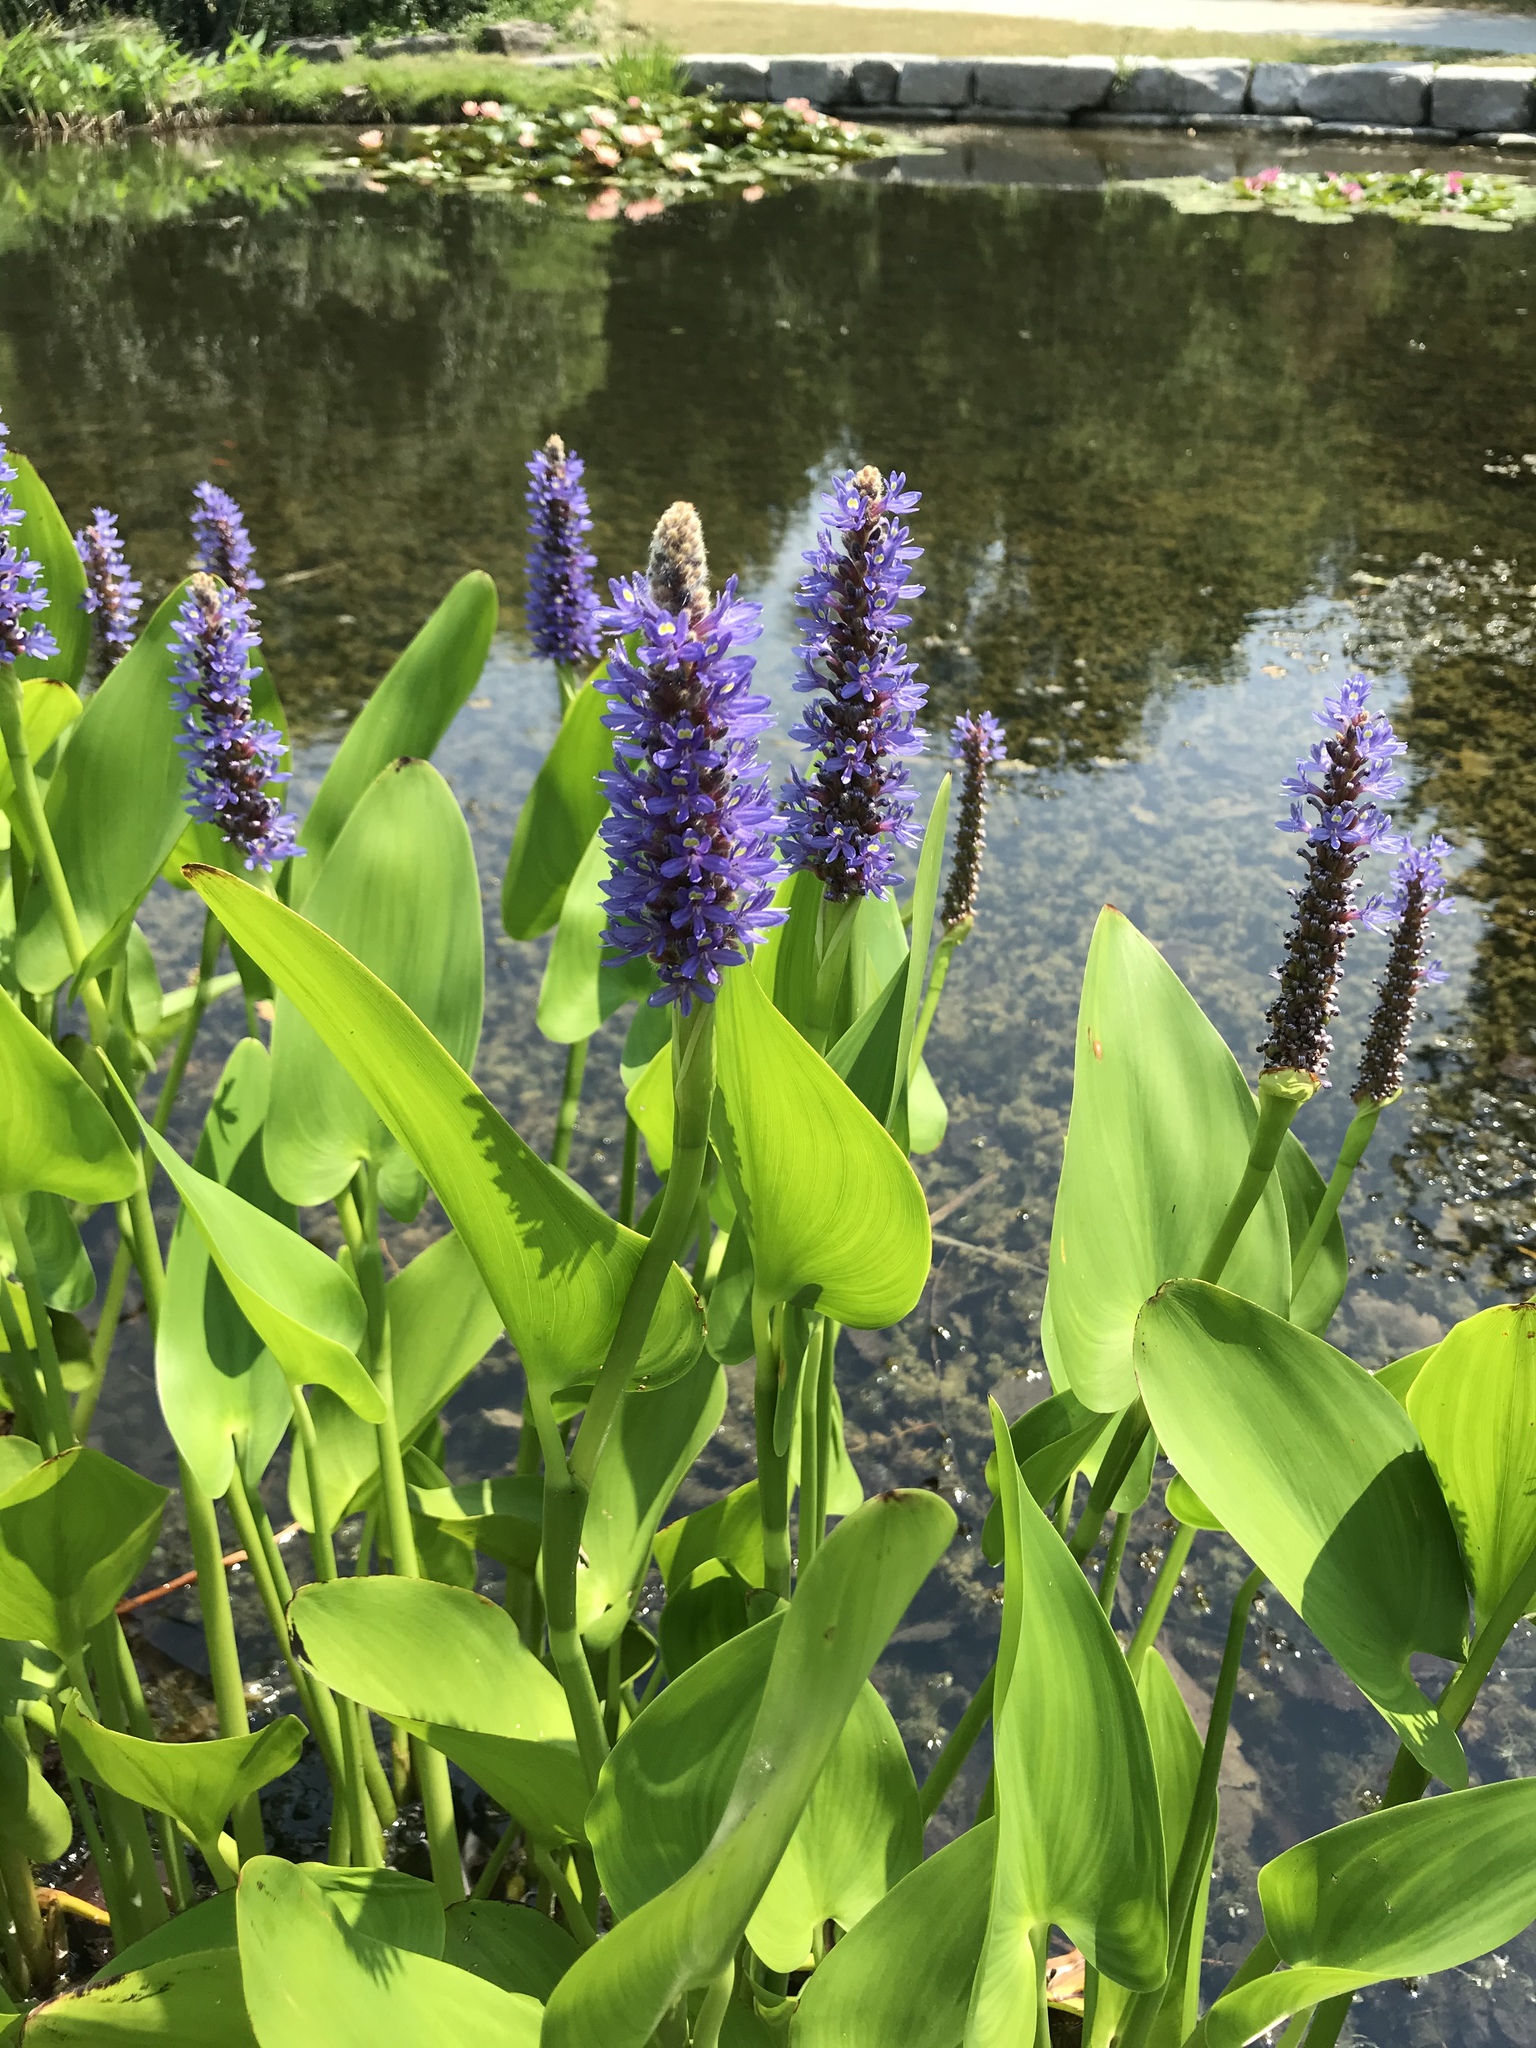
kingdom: Plantae
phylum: Tracheophyta
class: Liliopsida
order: Commelinales
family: Pontederiaceae
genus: Pontederia
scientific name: Pontederia cordata
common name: Pickerelweed
